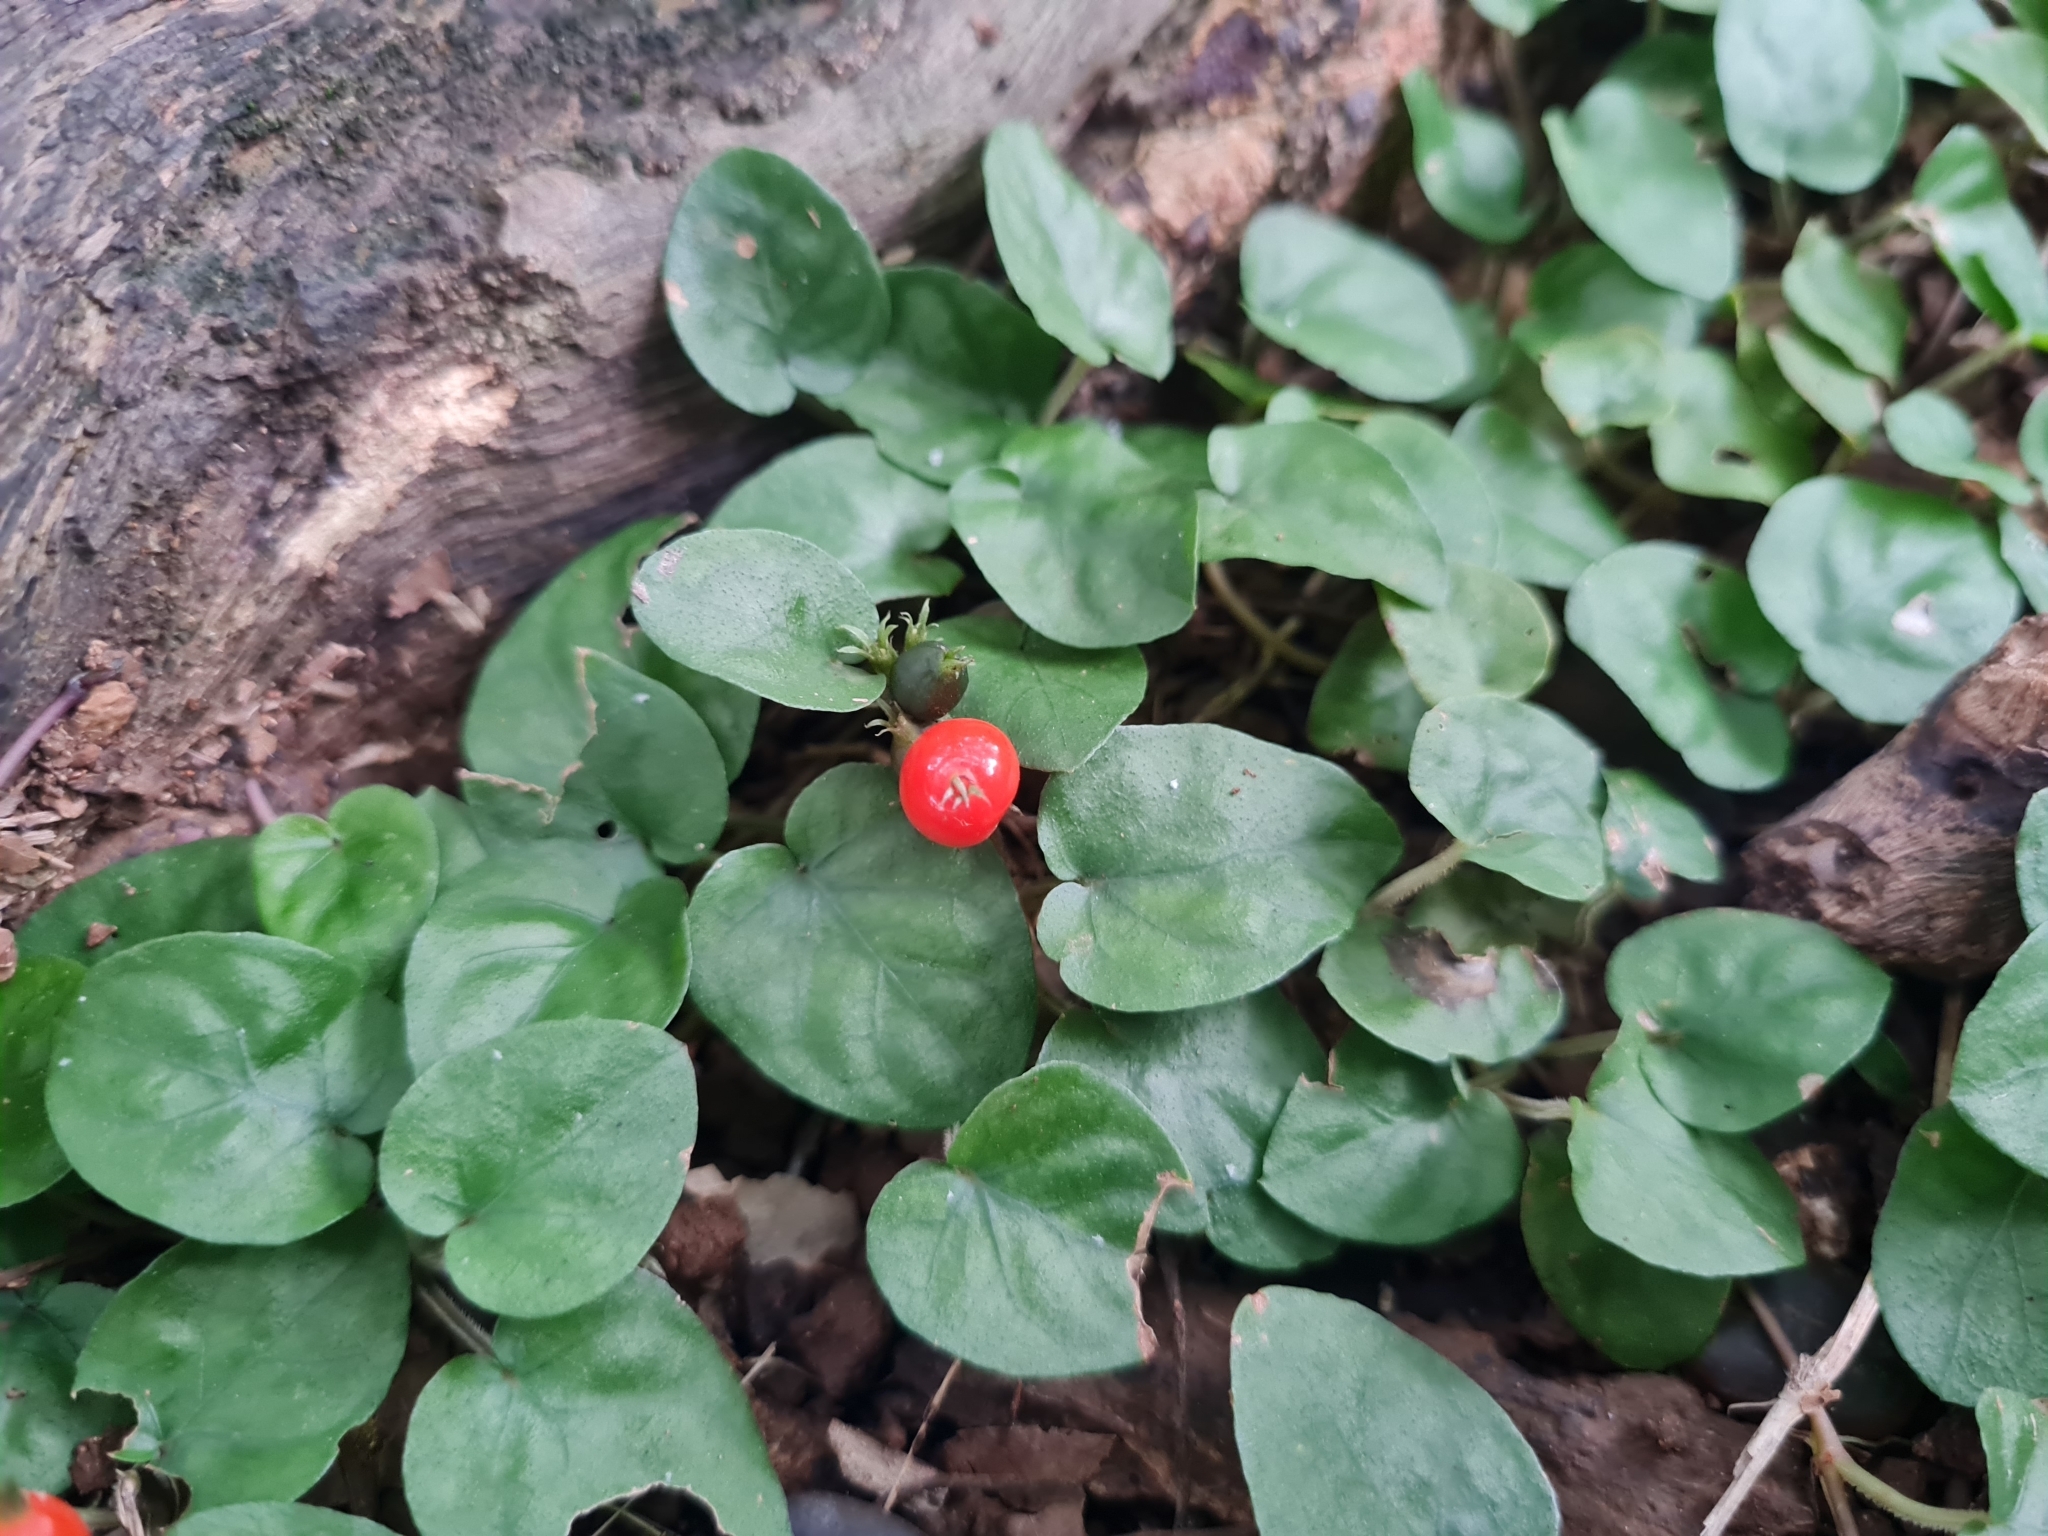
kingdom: Plantae
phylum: Tracheophyta
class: Magnoliopsida
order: Gentianales
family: Rubiaceae
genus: Geophila
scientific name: Geophila repens
